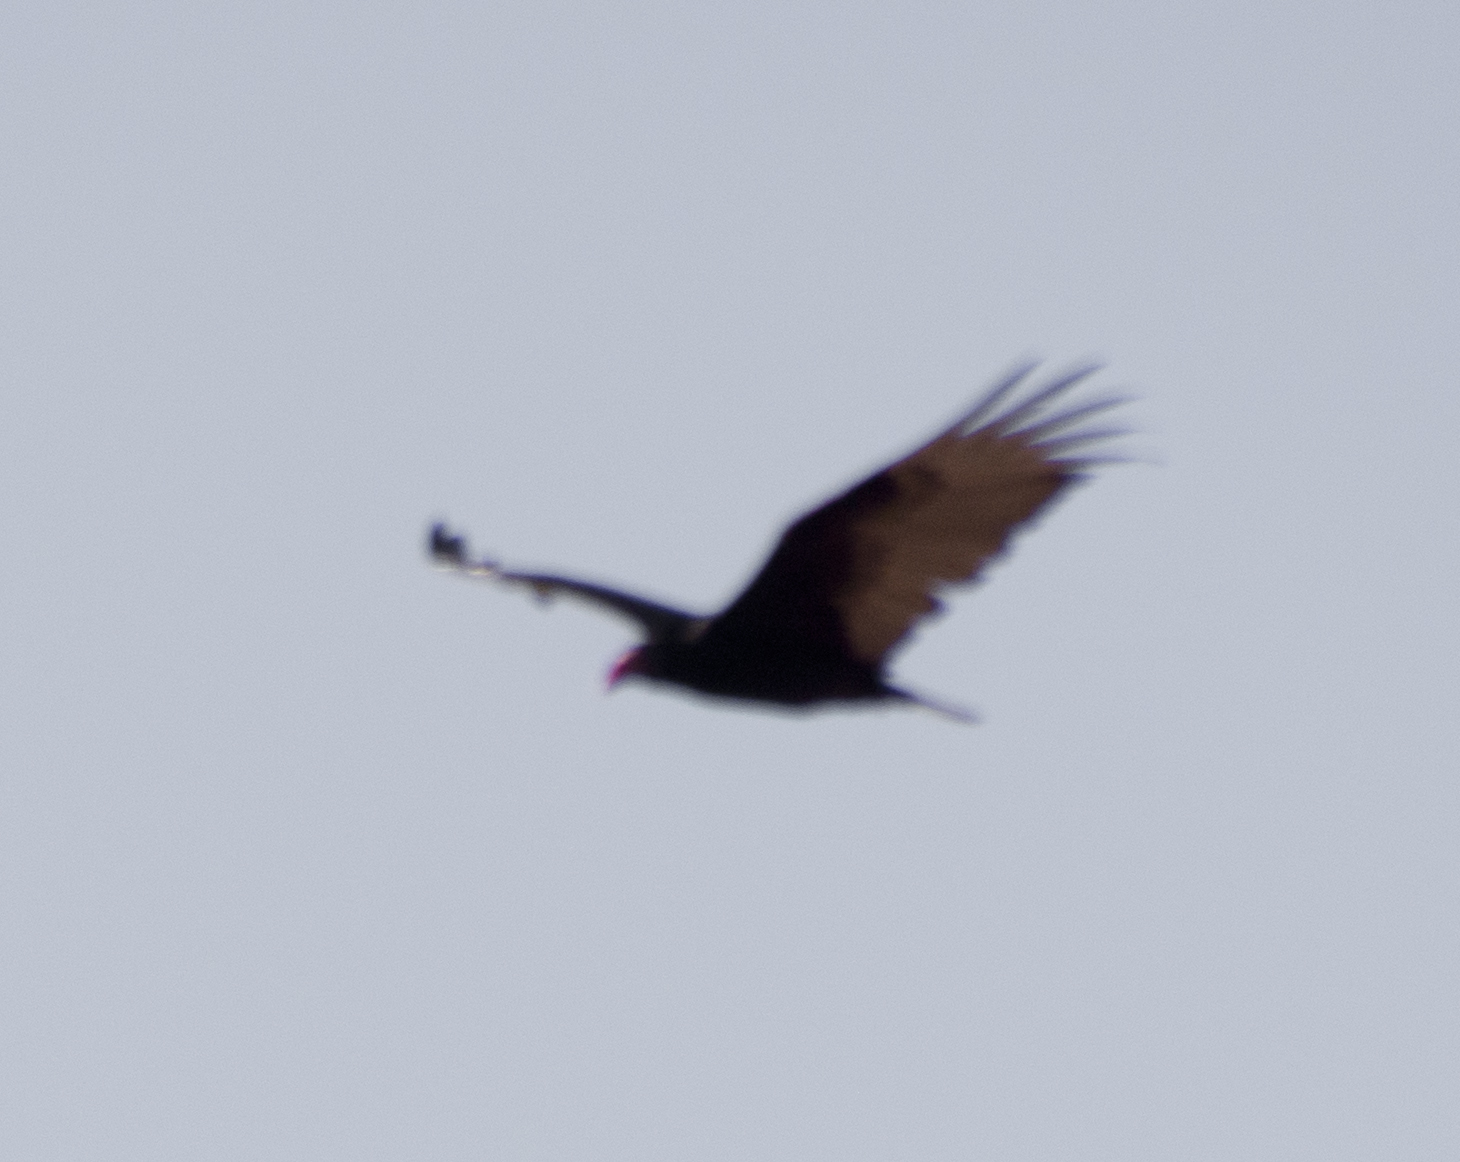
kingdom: Animalia
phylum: Chordata
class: Aves
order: Accipitriformes
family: Cathartidae
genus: Cathartes
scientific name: Cathartes aura
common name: Turkey vulture
